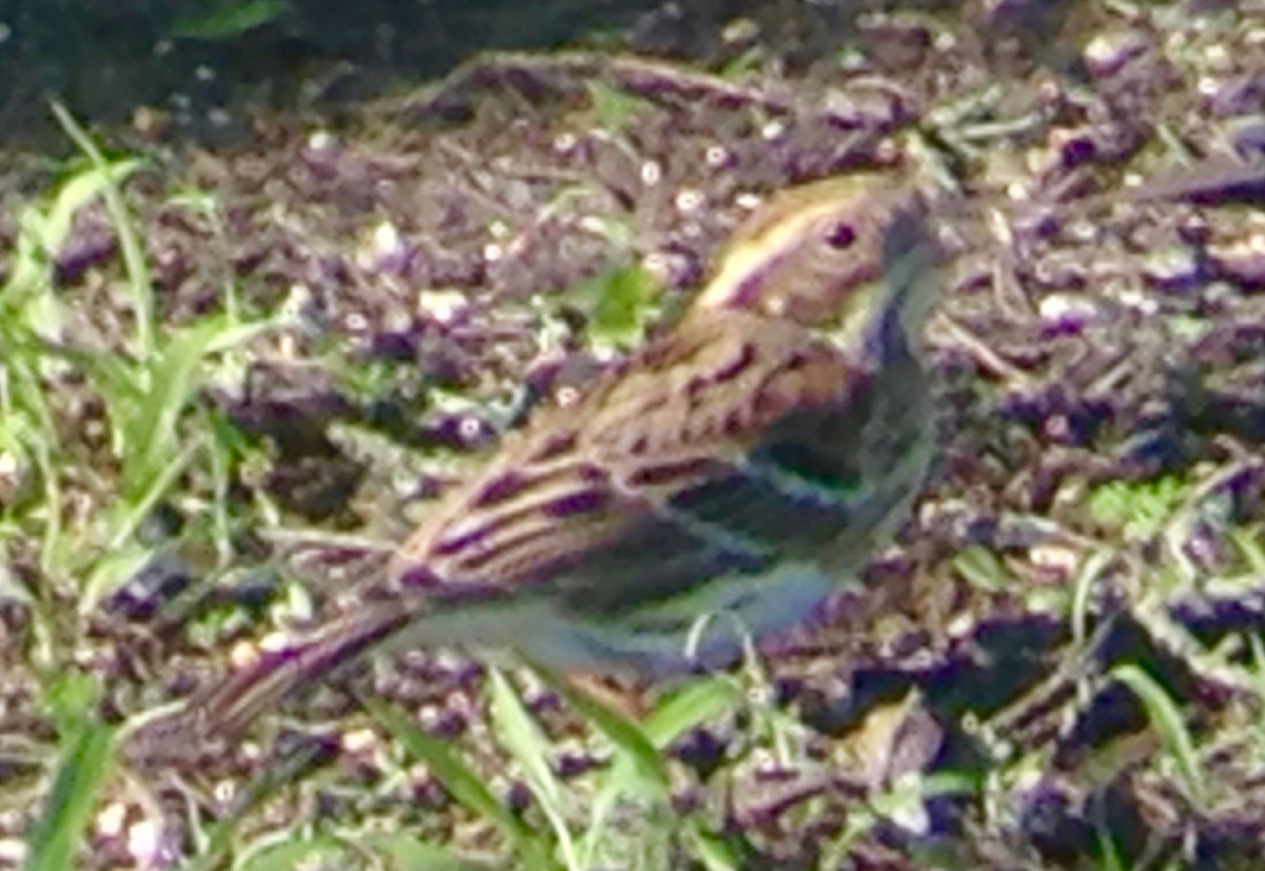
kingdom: Animalia
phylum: Chordata
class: Aves
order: Passeriformes
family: Emberizidae
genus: Emberiza
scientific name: Emberiza rustica
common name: Rustic bunting
